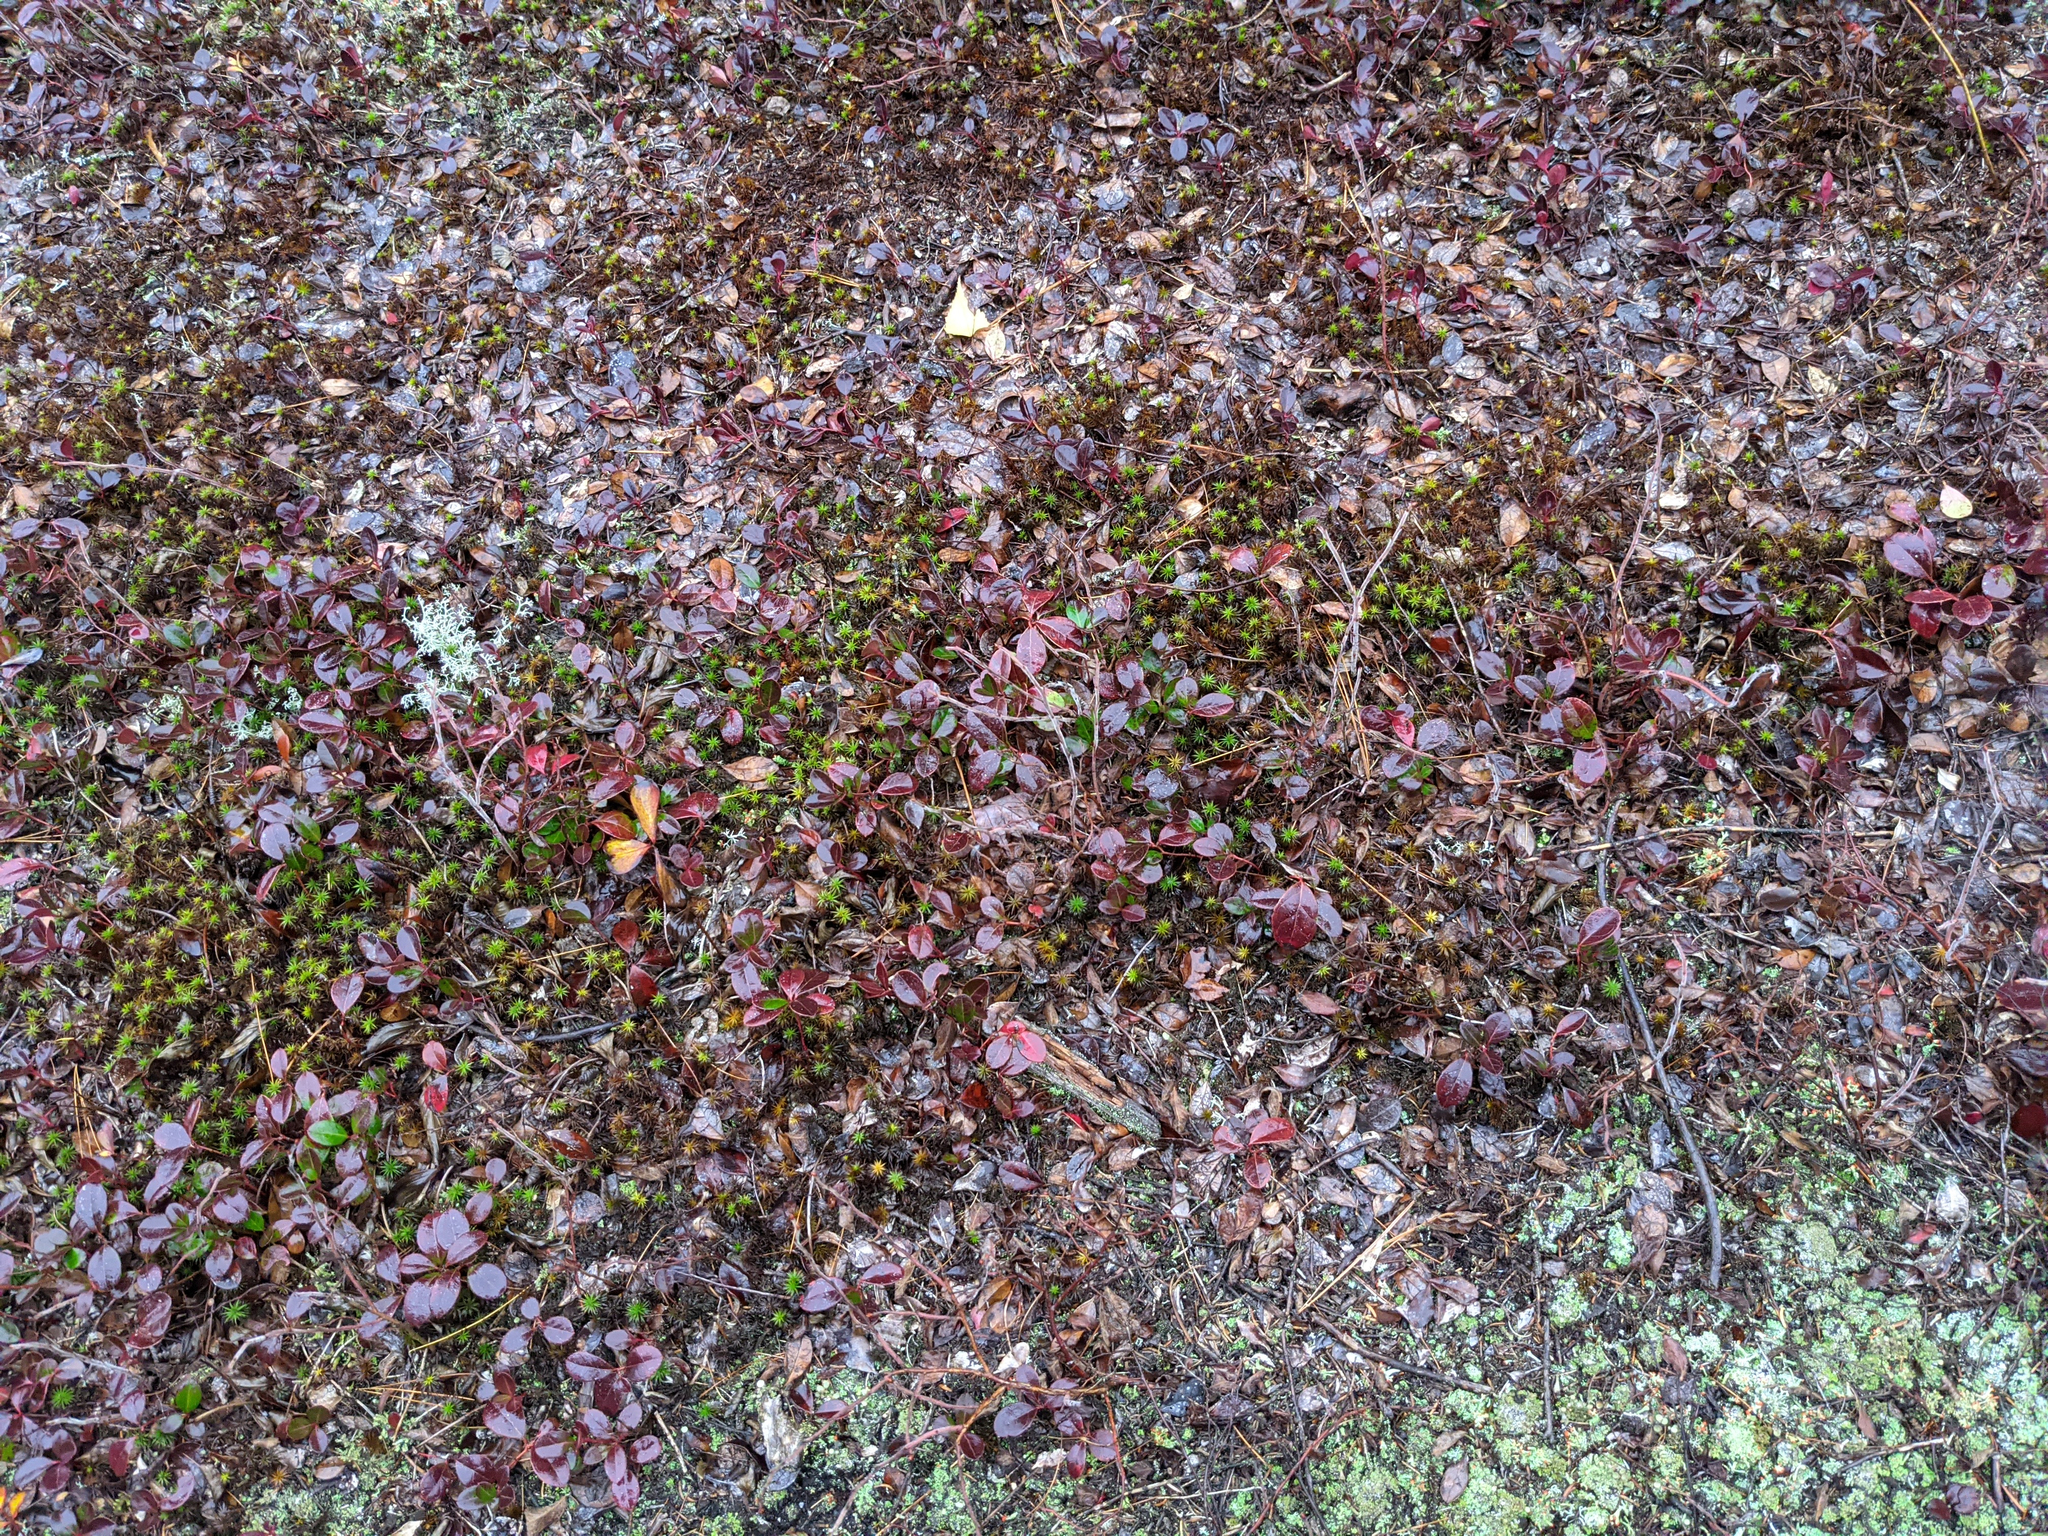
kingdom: Plantae
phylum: Tracheophyta
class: Magnoliopsida
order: Ericales
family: Ericaceae
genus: Gaultheria
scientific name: Gaultheria procumbens
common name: Checkerberry
